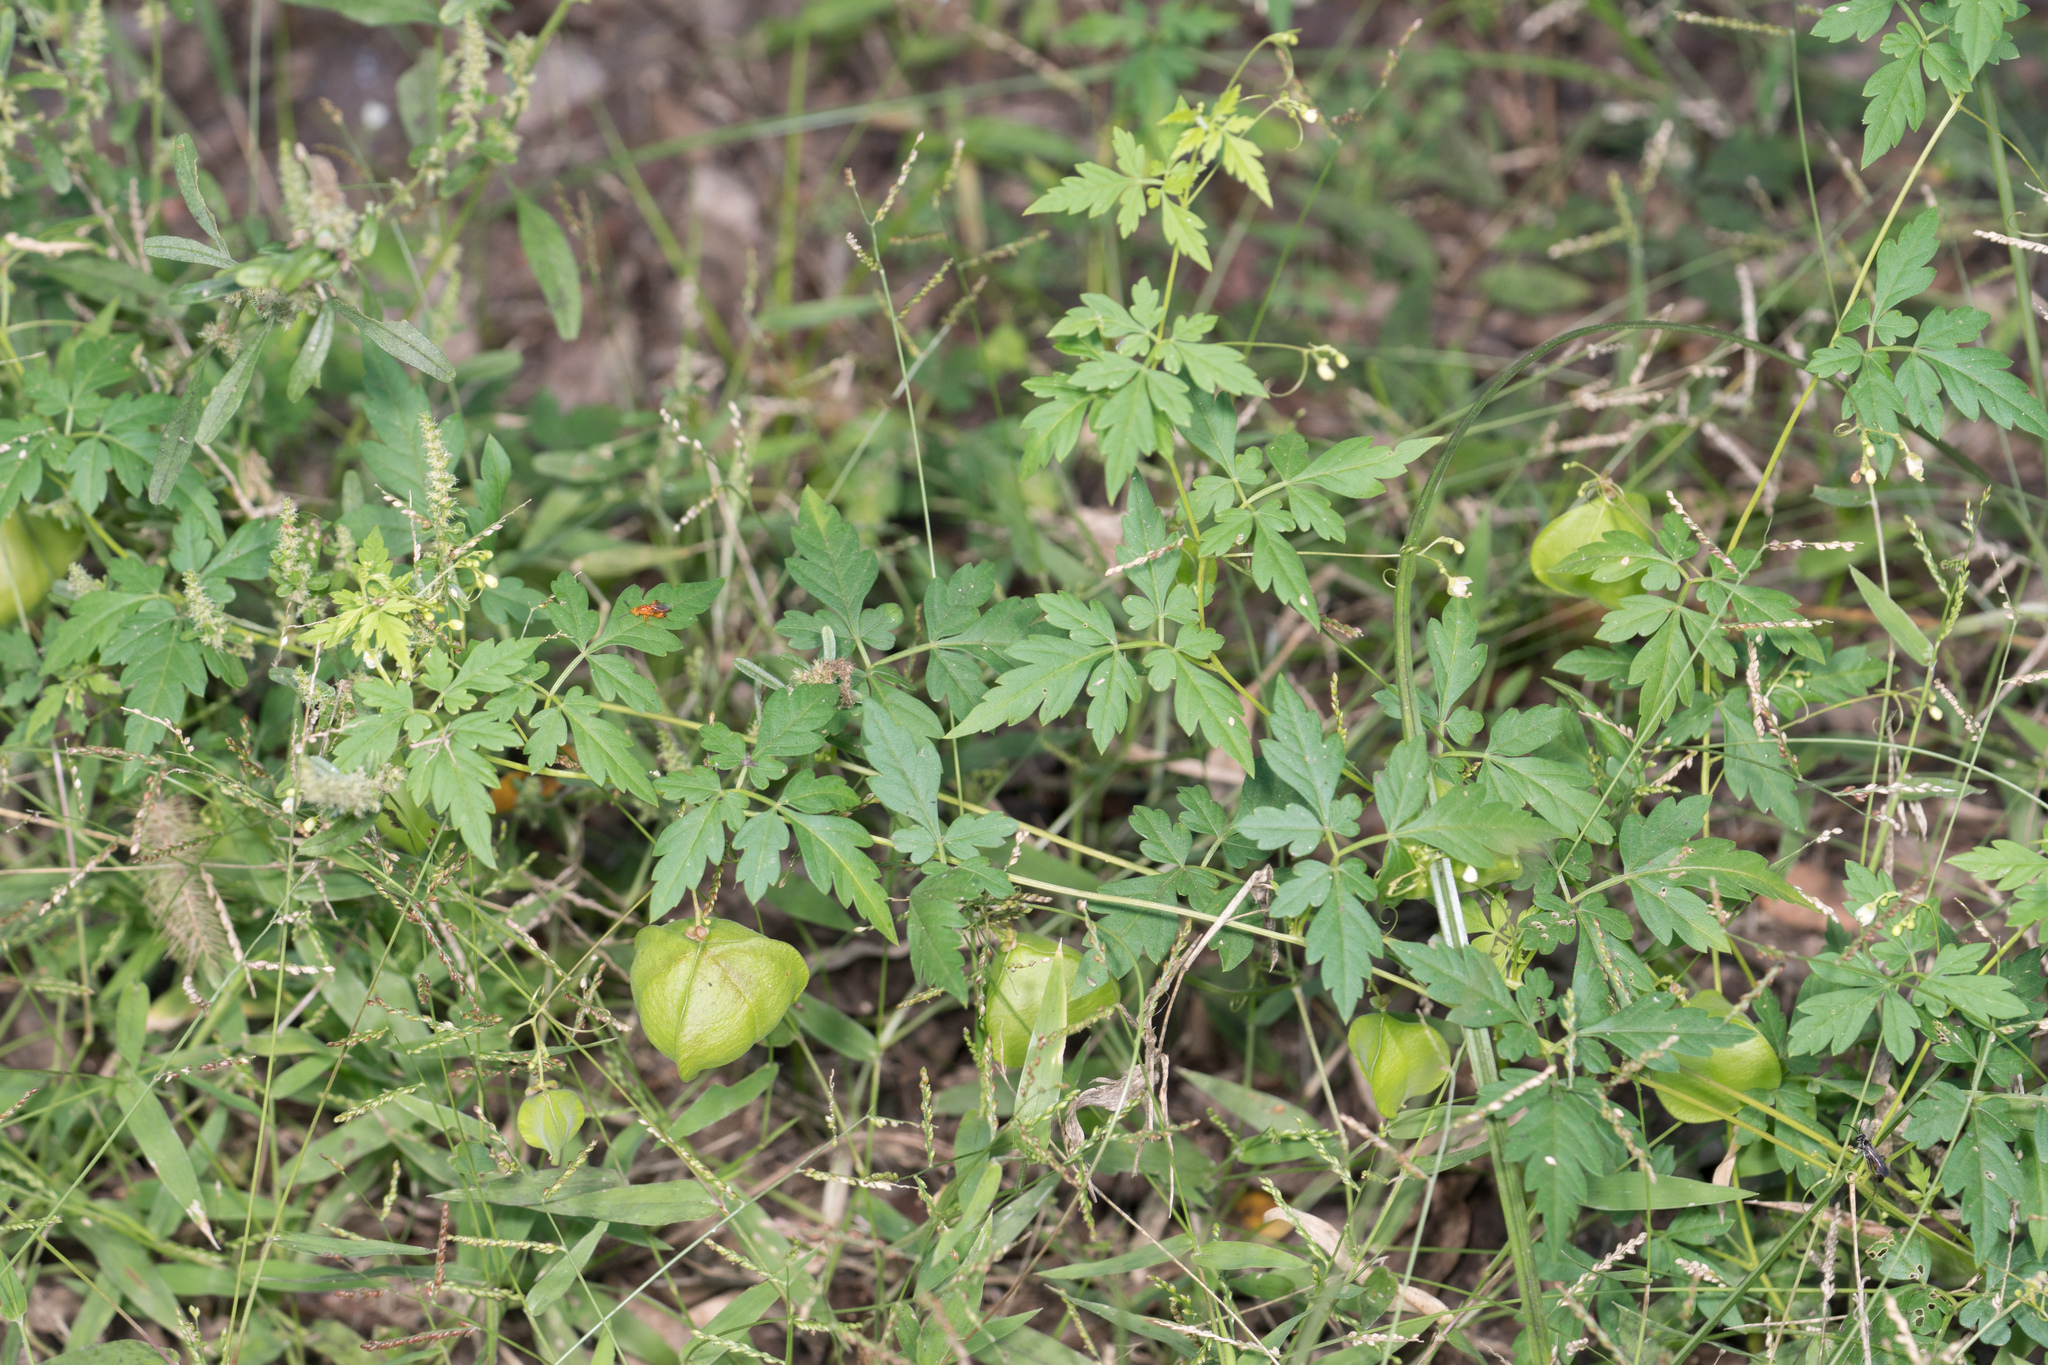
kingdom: Plantae
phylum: Tracheophyta
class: Magnoliopsida
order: Sapindales
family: Sapindaceae
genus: Cardiospermum
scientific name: Cardiospermum halicacabum
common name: Balloon vine
